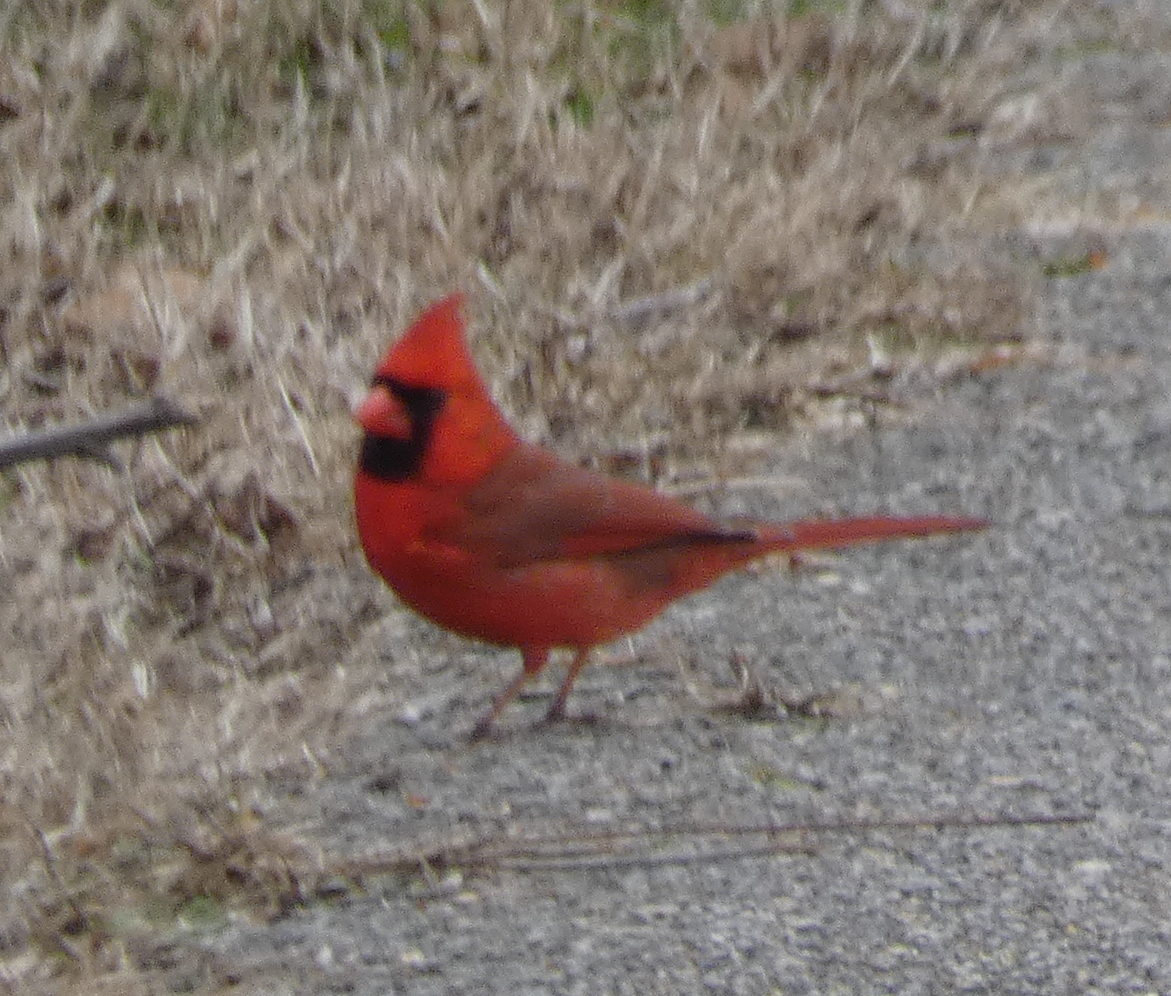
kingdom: Animalia
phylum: Chordata
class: Aves
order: Passeriformes
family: Cardinalidae
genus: Cardinalis
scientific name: Cardinalis cardinalis
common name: Northern cardinal
